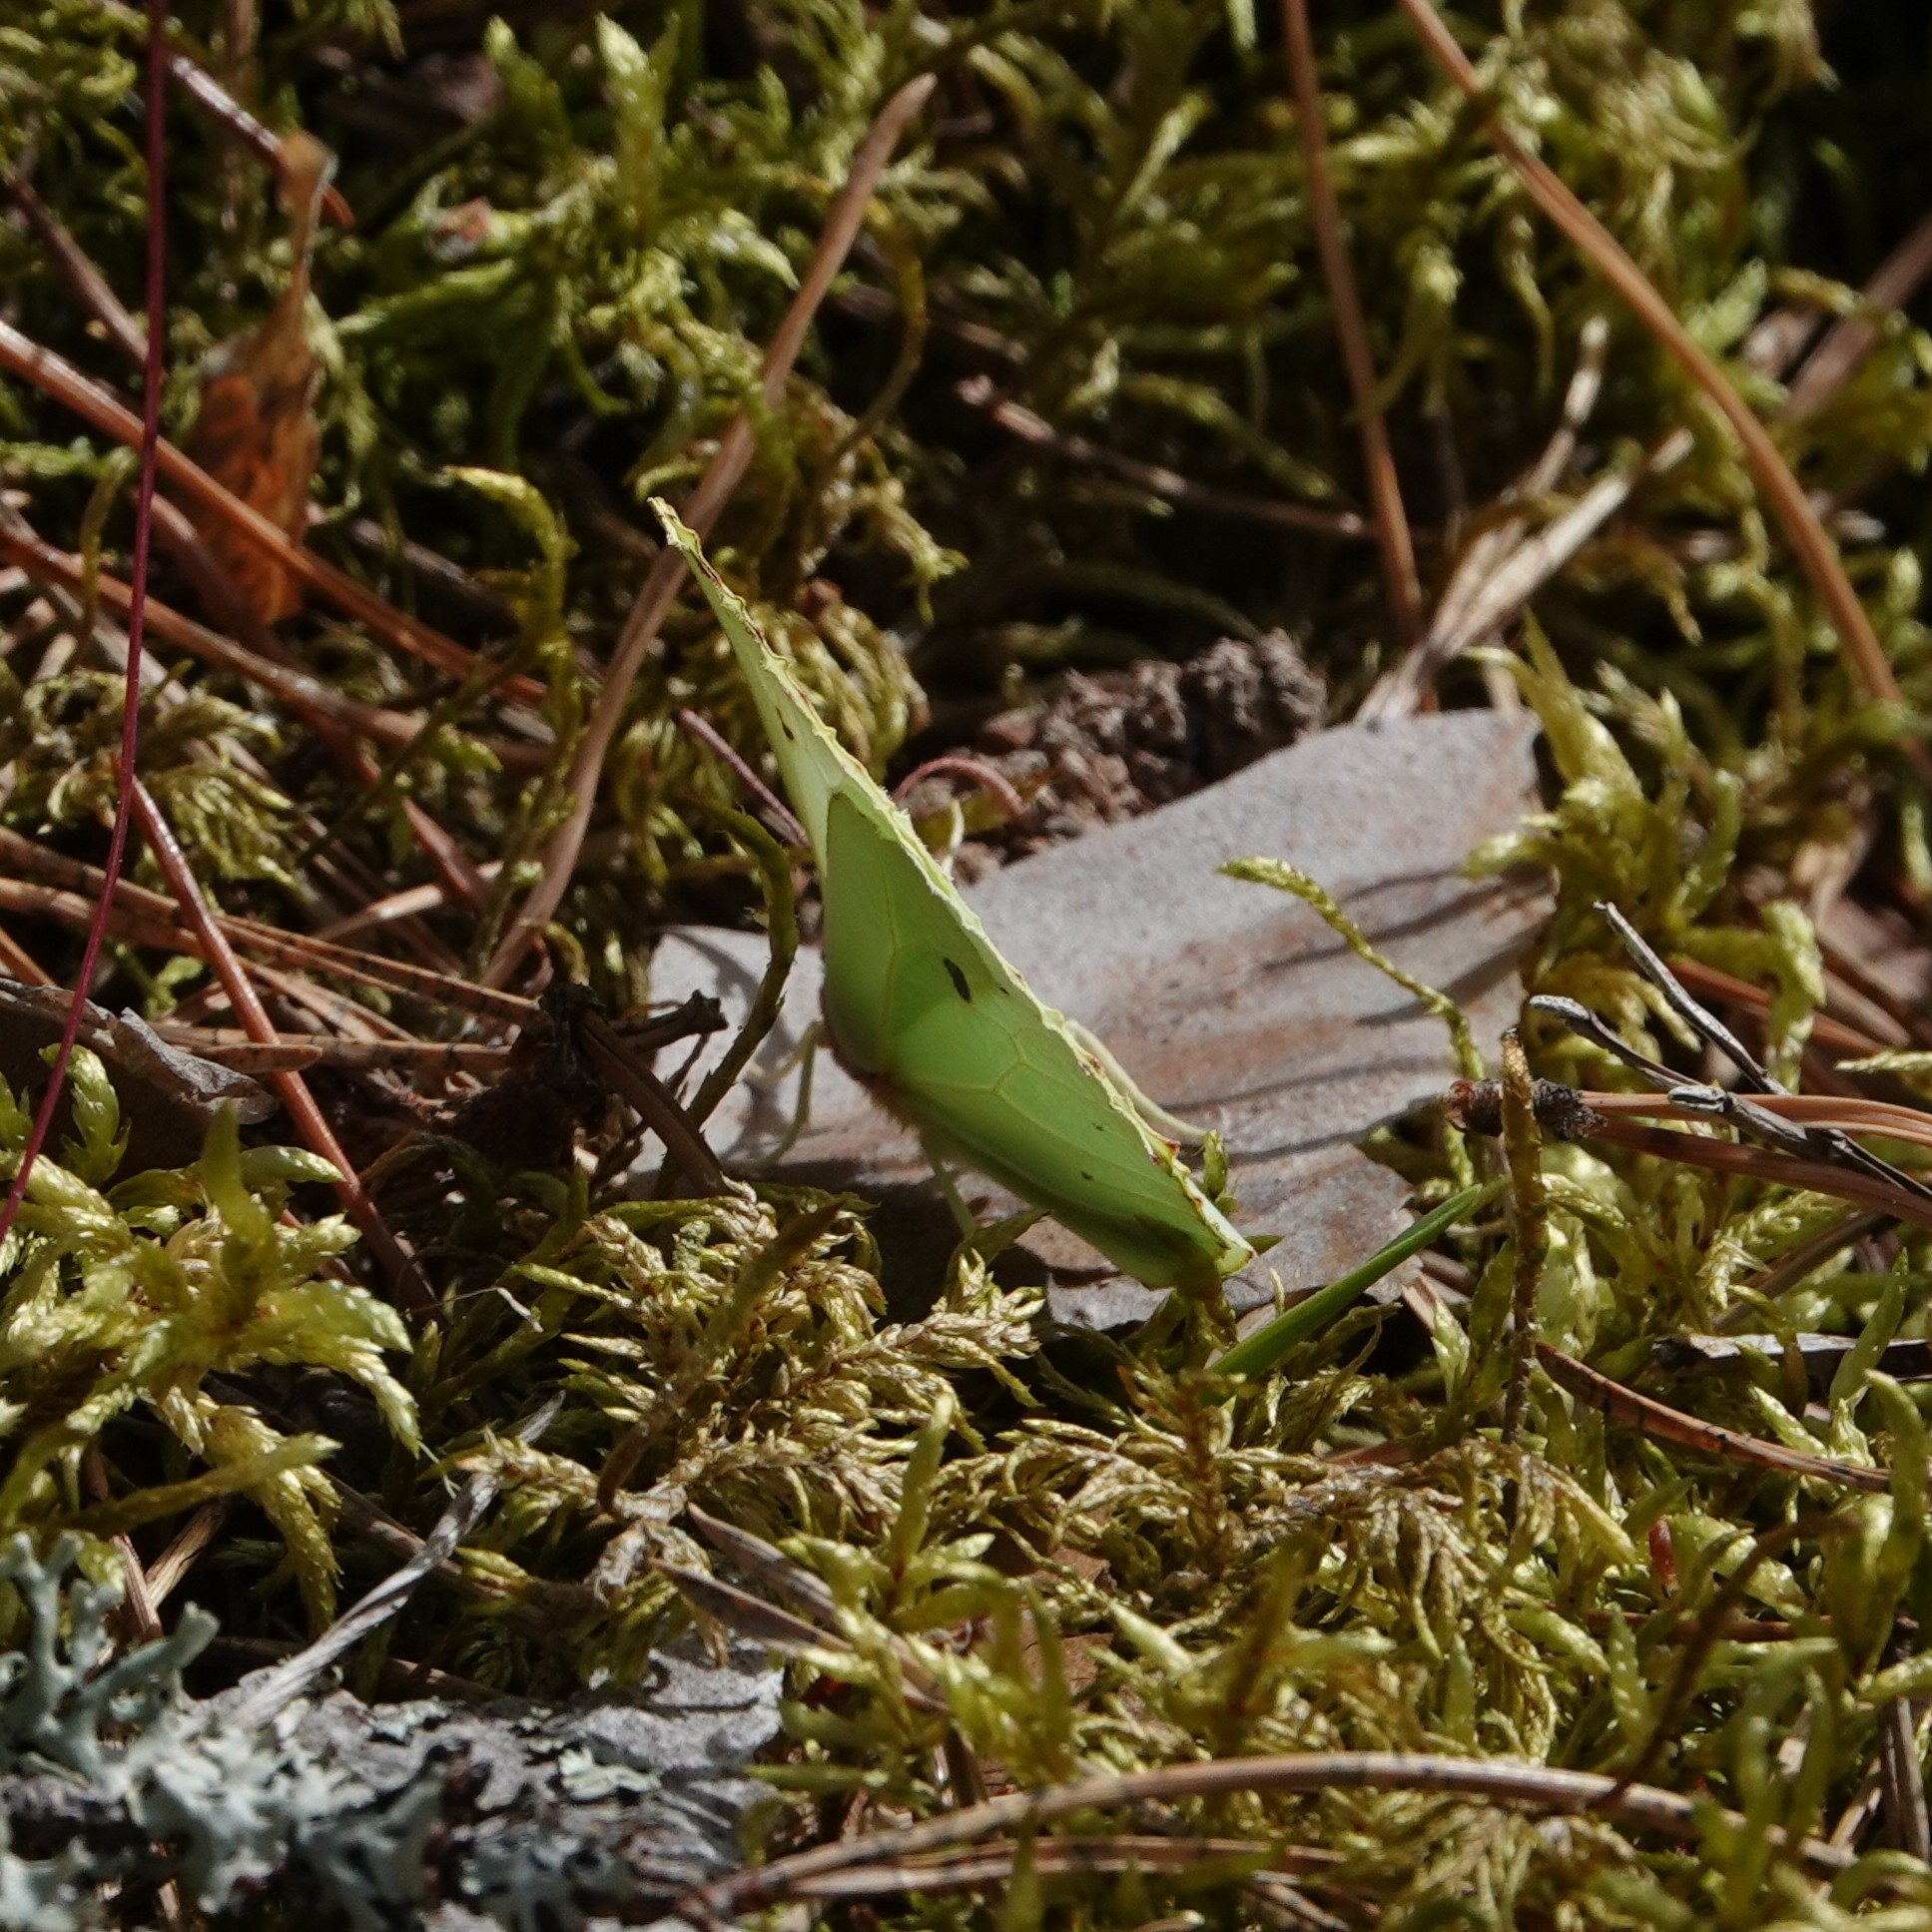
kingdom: Animalia
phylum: Arthropoda
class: Insecta
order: Lepidoptera
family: Pieridae
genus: Gonepteryx
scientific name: Gonepteryx rhamni
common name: Brimstone
